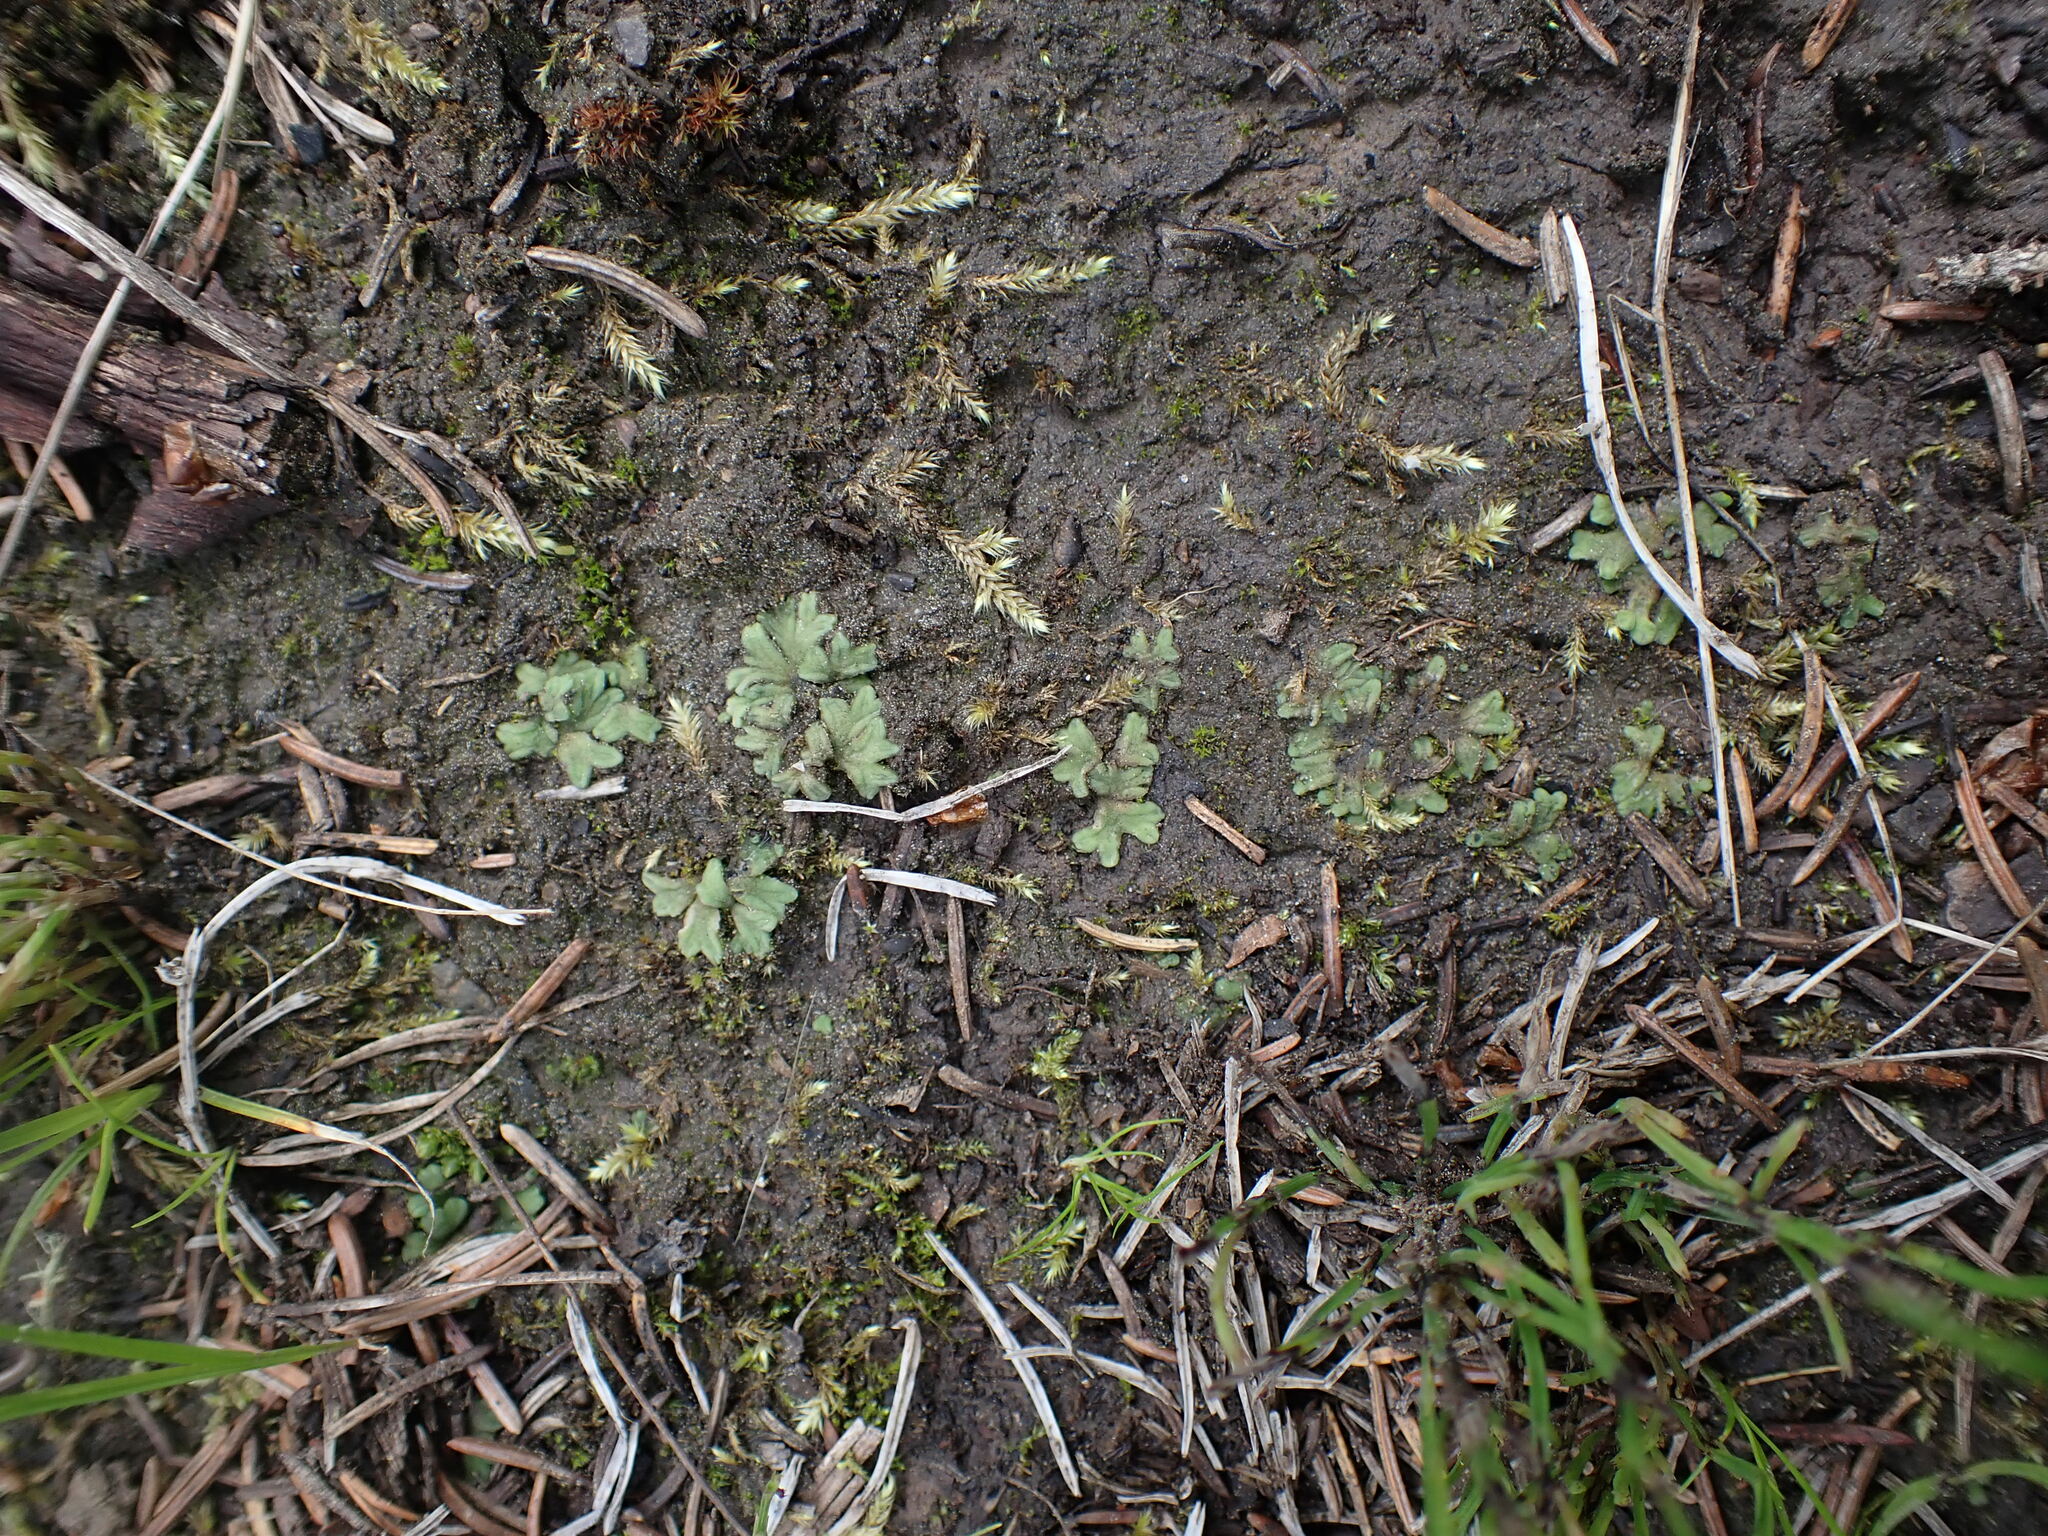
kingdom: Plantae
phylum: Marchantiophyta
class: Marchantiopsida
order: Marchantiales
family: Ricciaceae
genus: Riccia
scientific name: Riccia sorocarpa
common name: Common crystalwort
